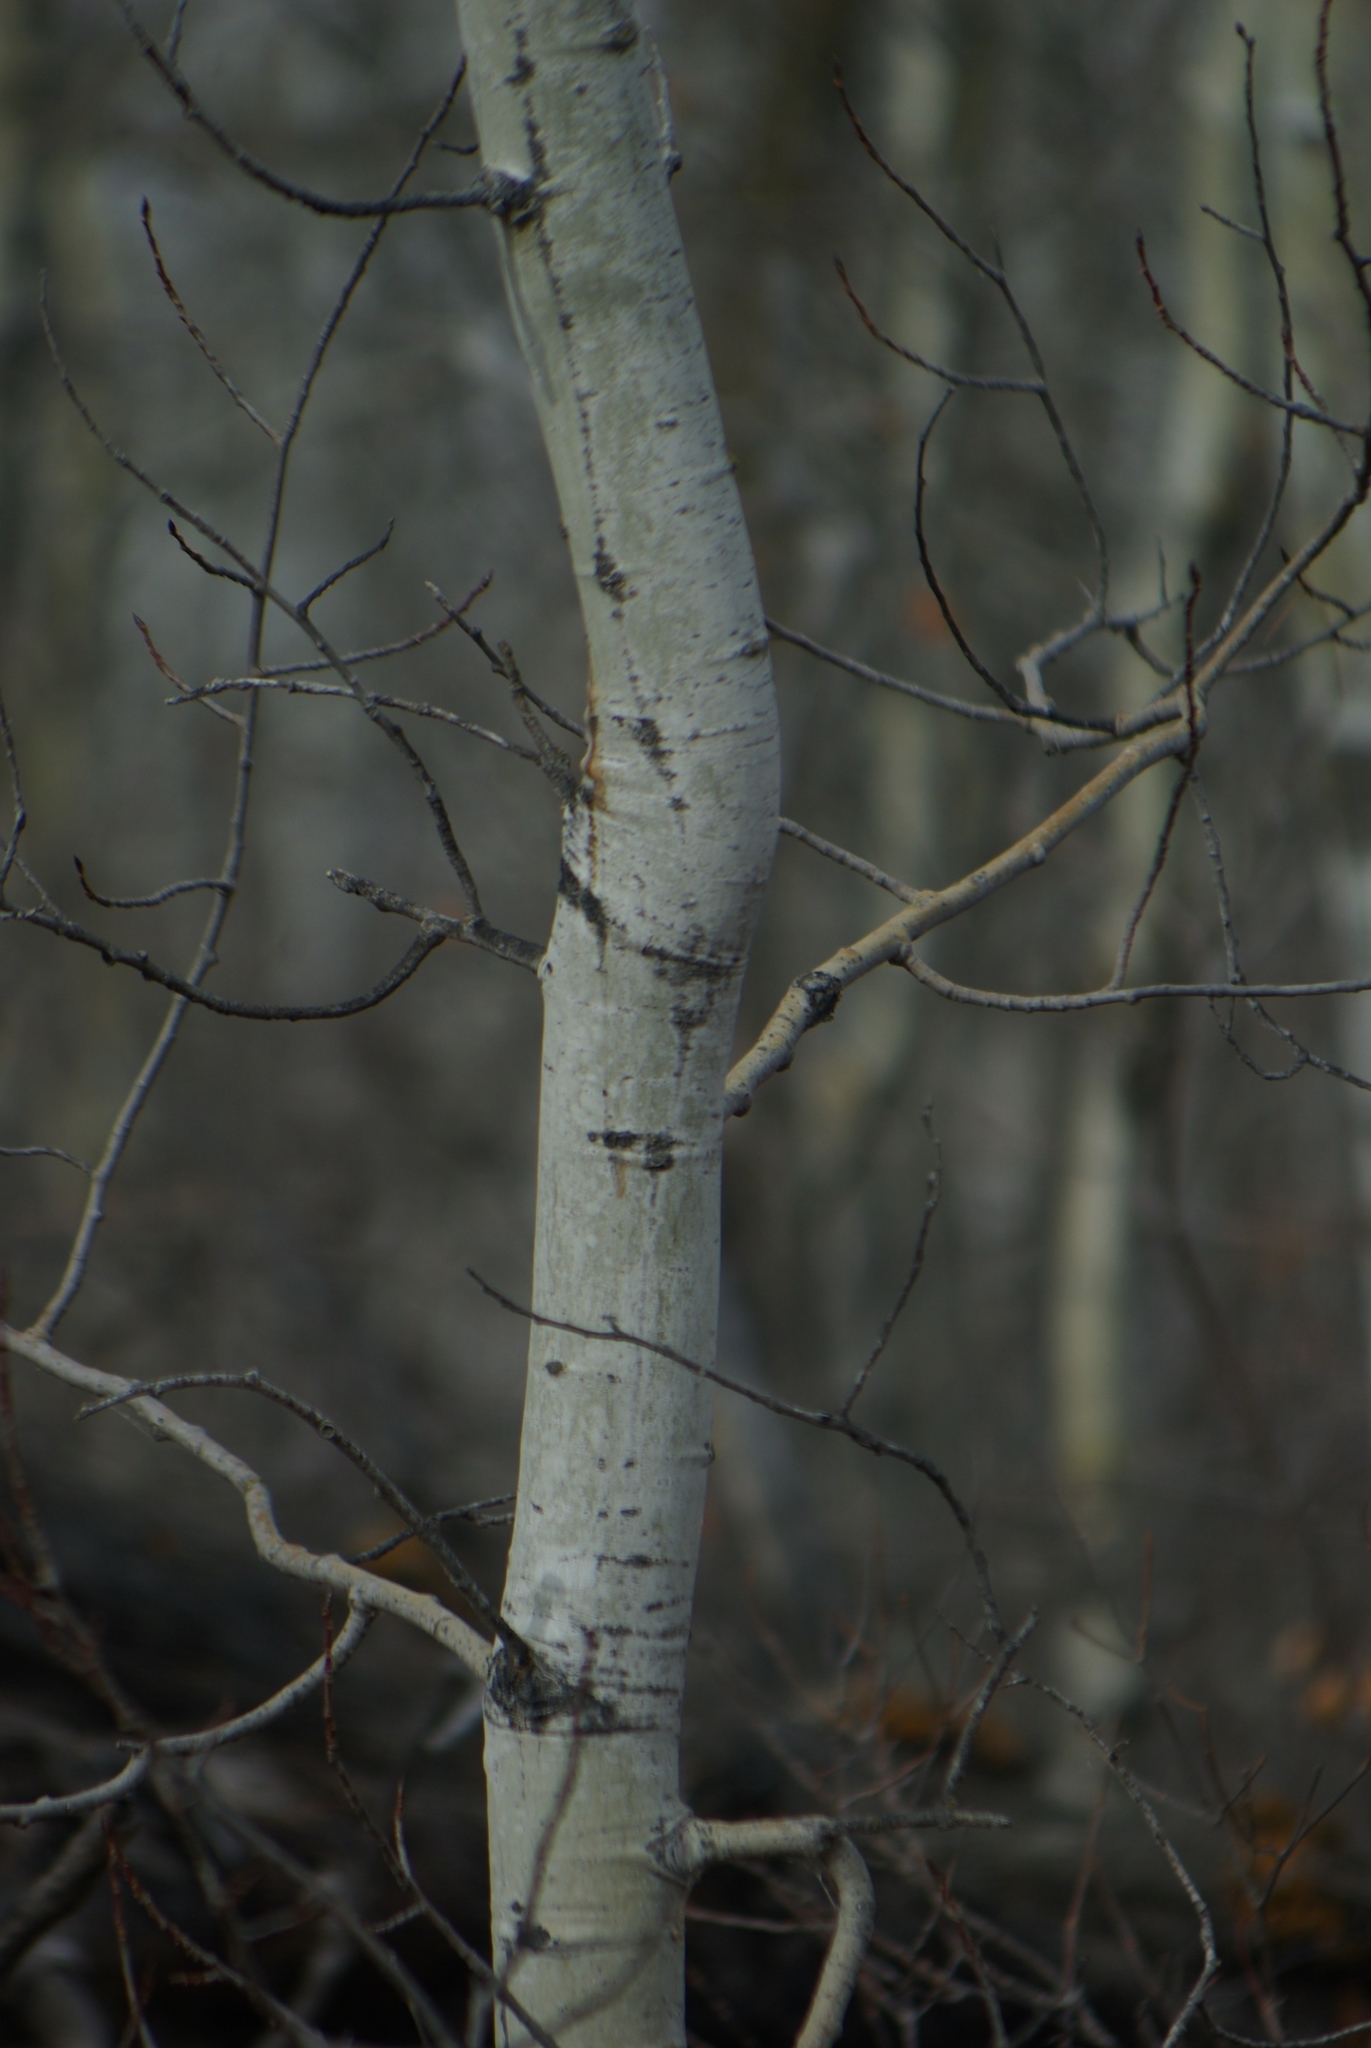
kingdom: Plantae
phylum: Tracheophyta
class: Magnoliopsida
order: Malpighiales
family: Salicaceae
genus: Populus
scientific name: Populus tremuloides
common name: Quaking aspen
